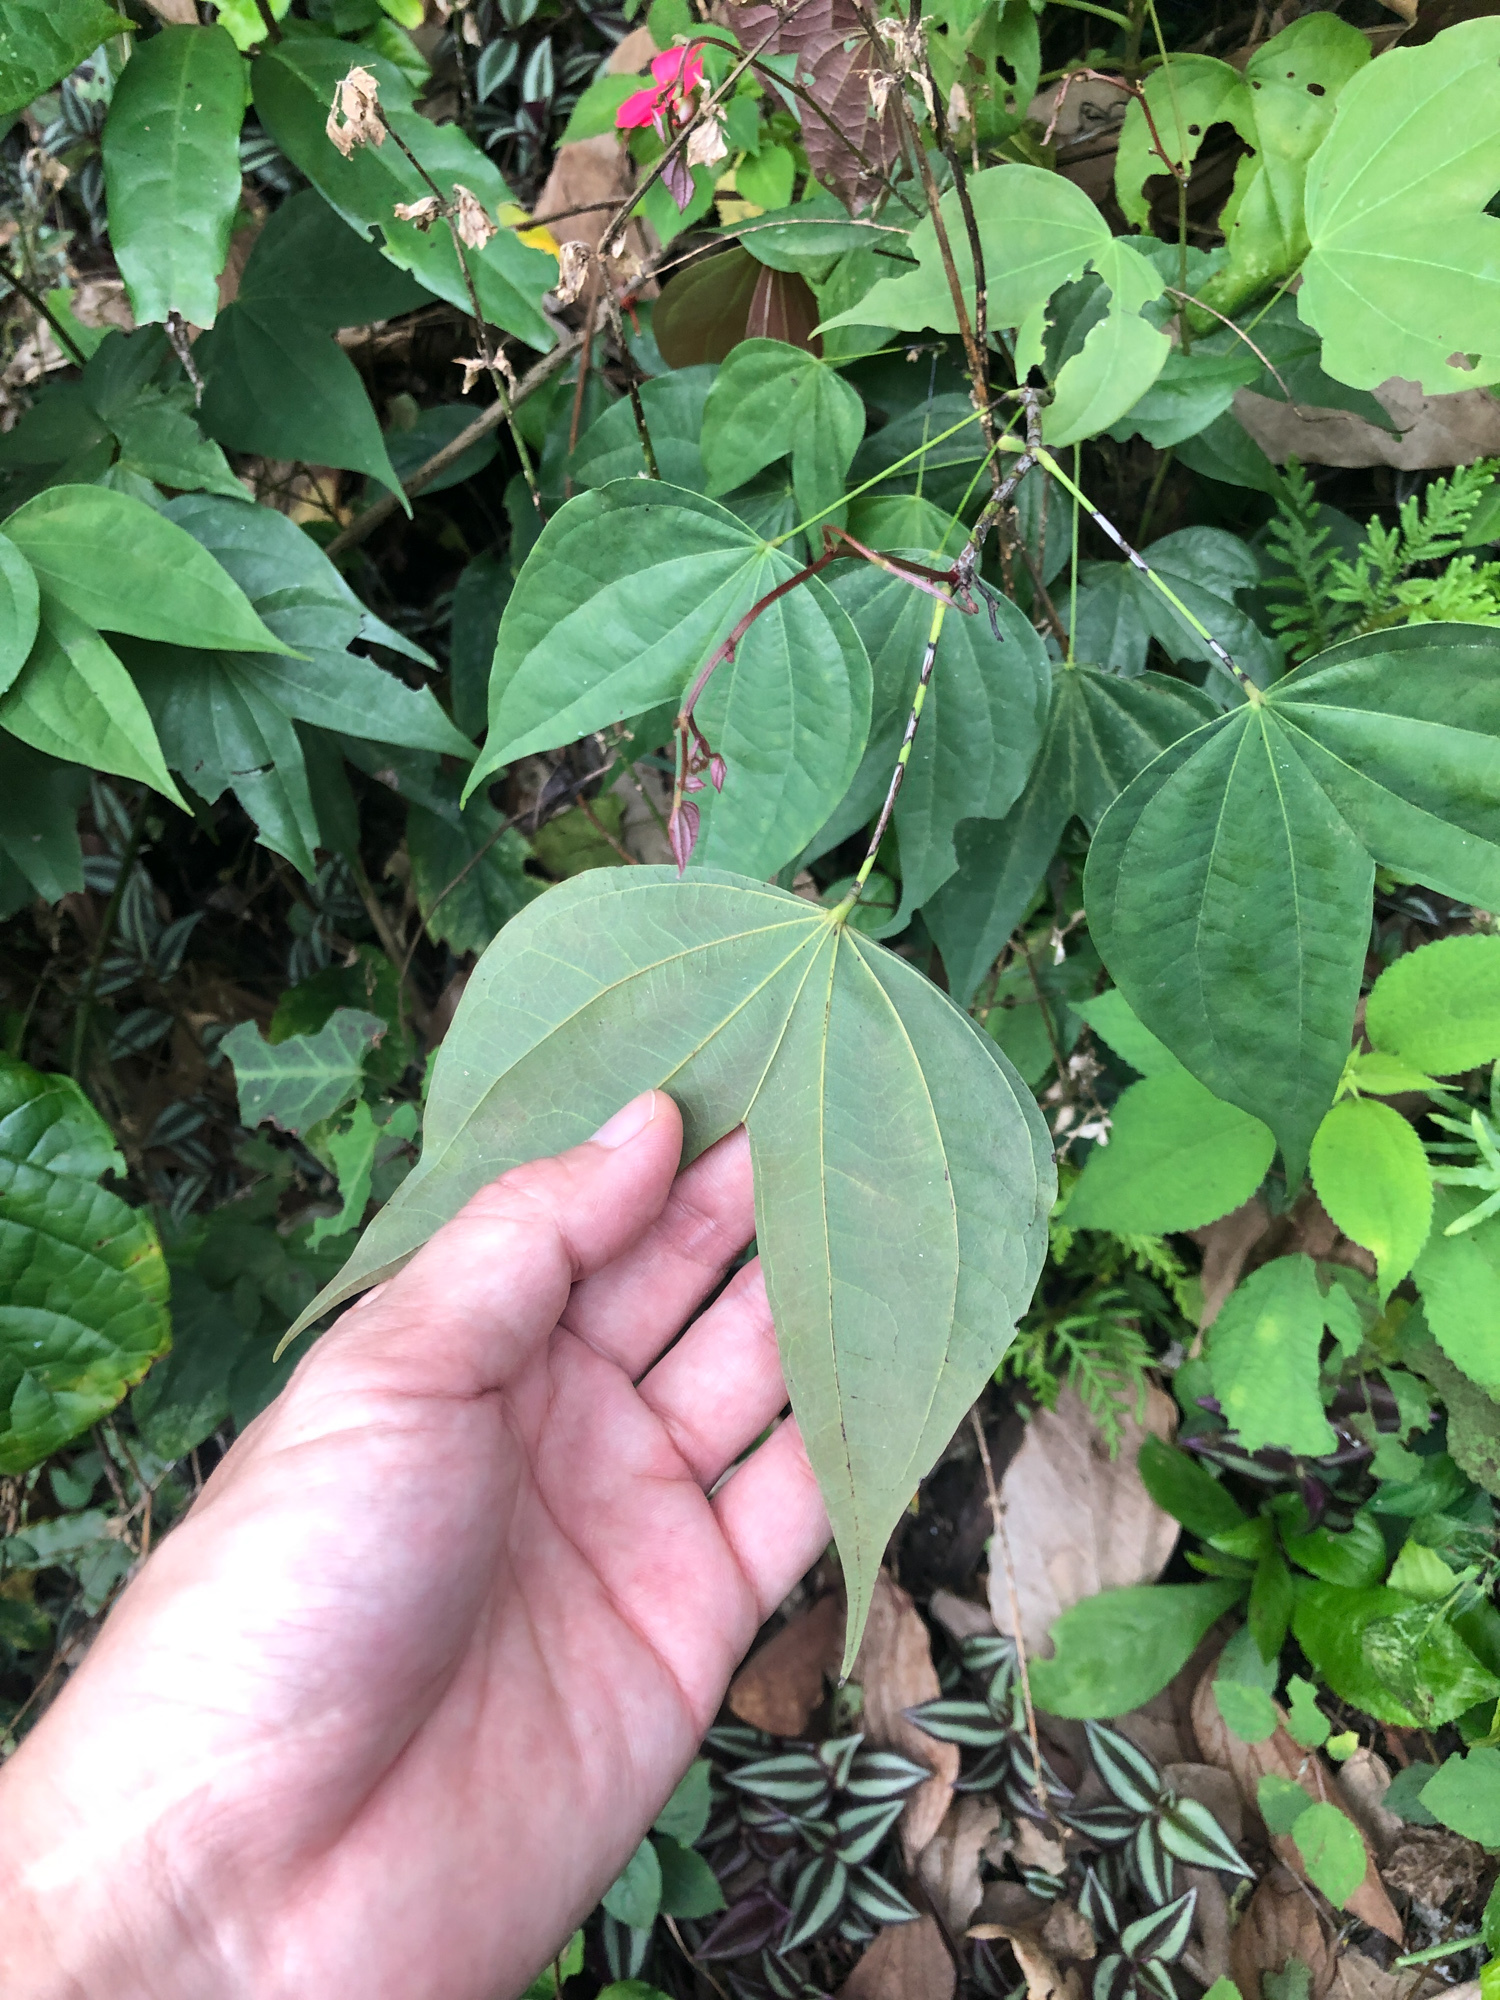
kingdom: Plantae
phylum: Tracheophyta
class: Magnoliopsida
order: Fabales
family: Fabaceae
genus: Phanera
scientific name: Phanera championii
